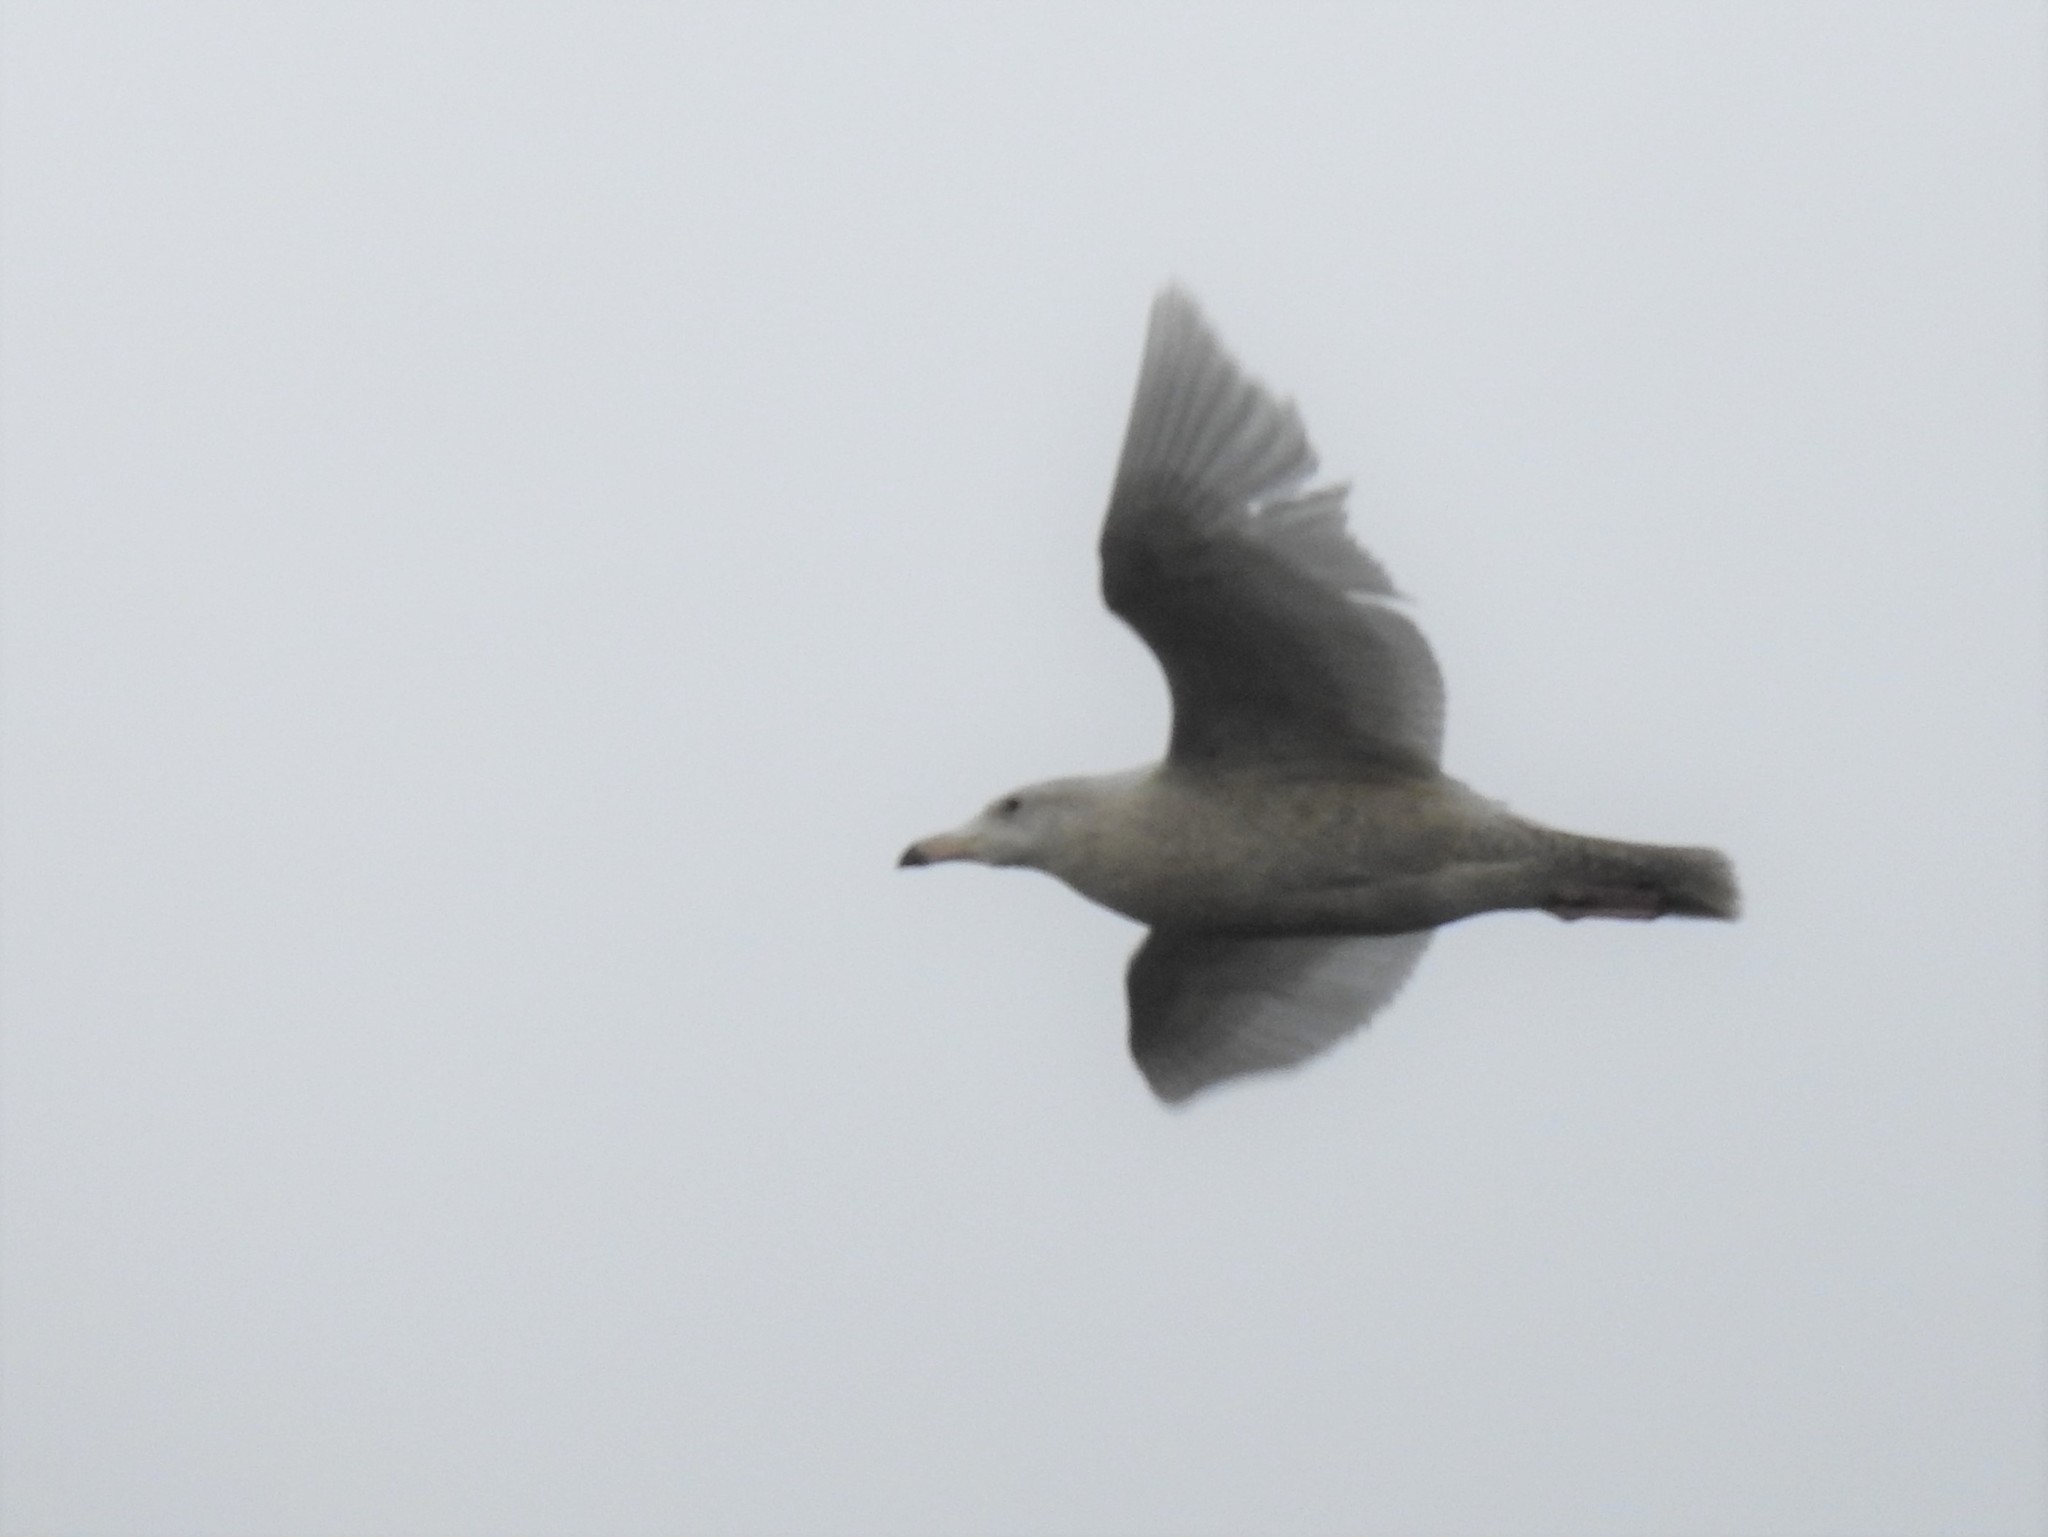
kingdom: Animalia
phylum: Chordata
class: Aves
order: Charadriiformes
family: Laridae
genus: Larus
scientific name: Larus hyperboreus
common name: Glaucous gull
